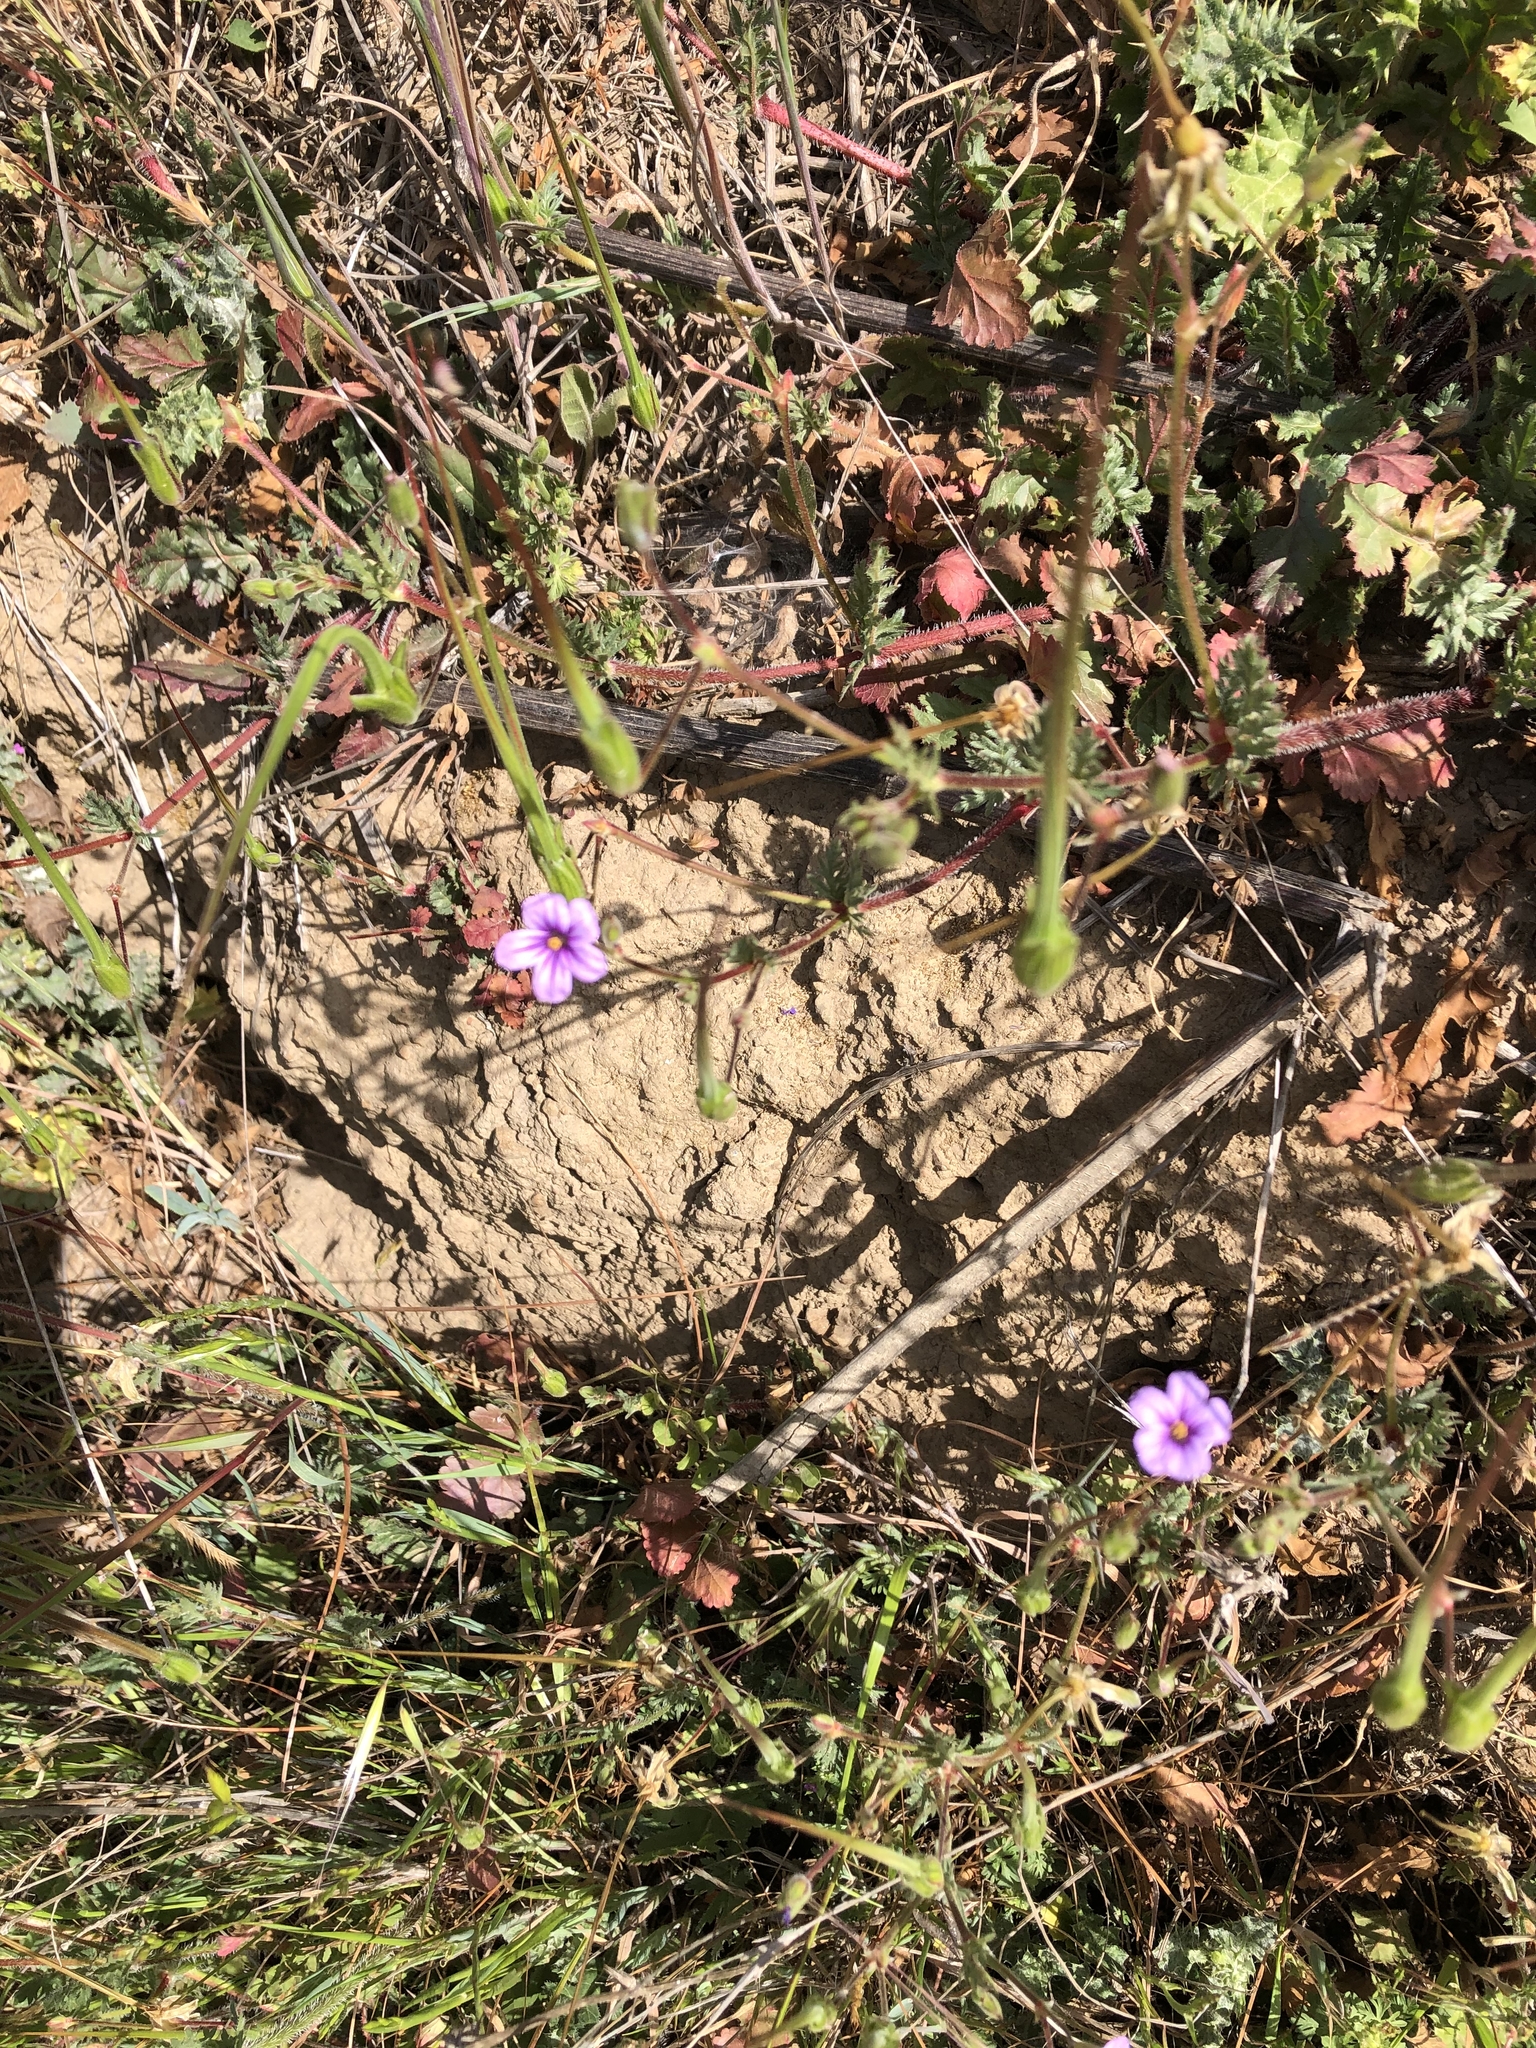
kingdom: Plantae
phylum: Tracheophyta
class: Magnoliopsida
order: Geraniales
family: Geraniaceae
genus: Erodium
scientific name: Erodium botrys
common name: Mediterranean stork's-bill
